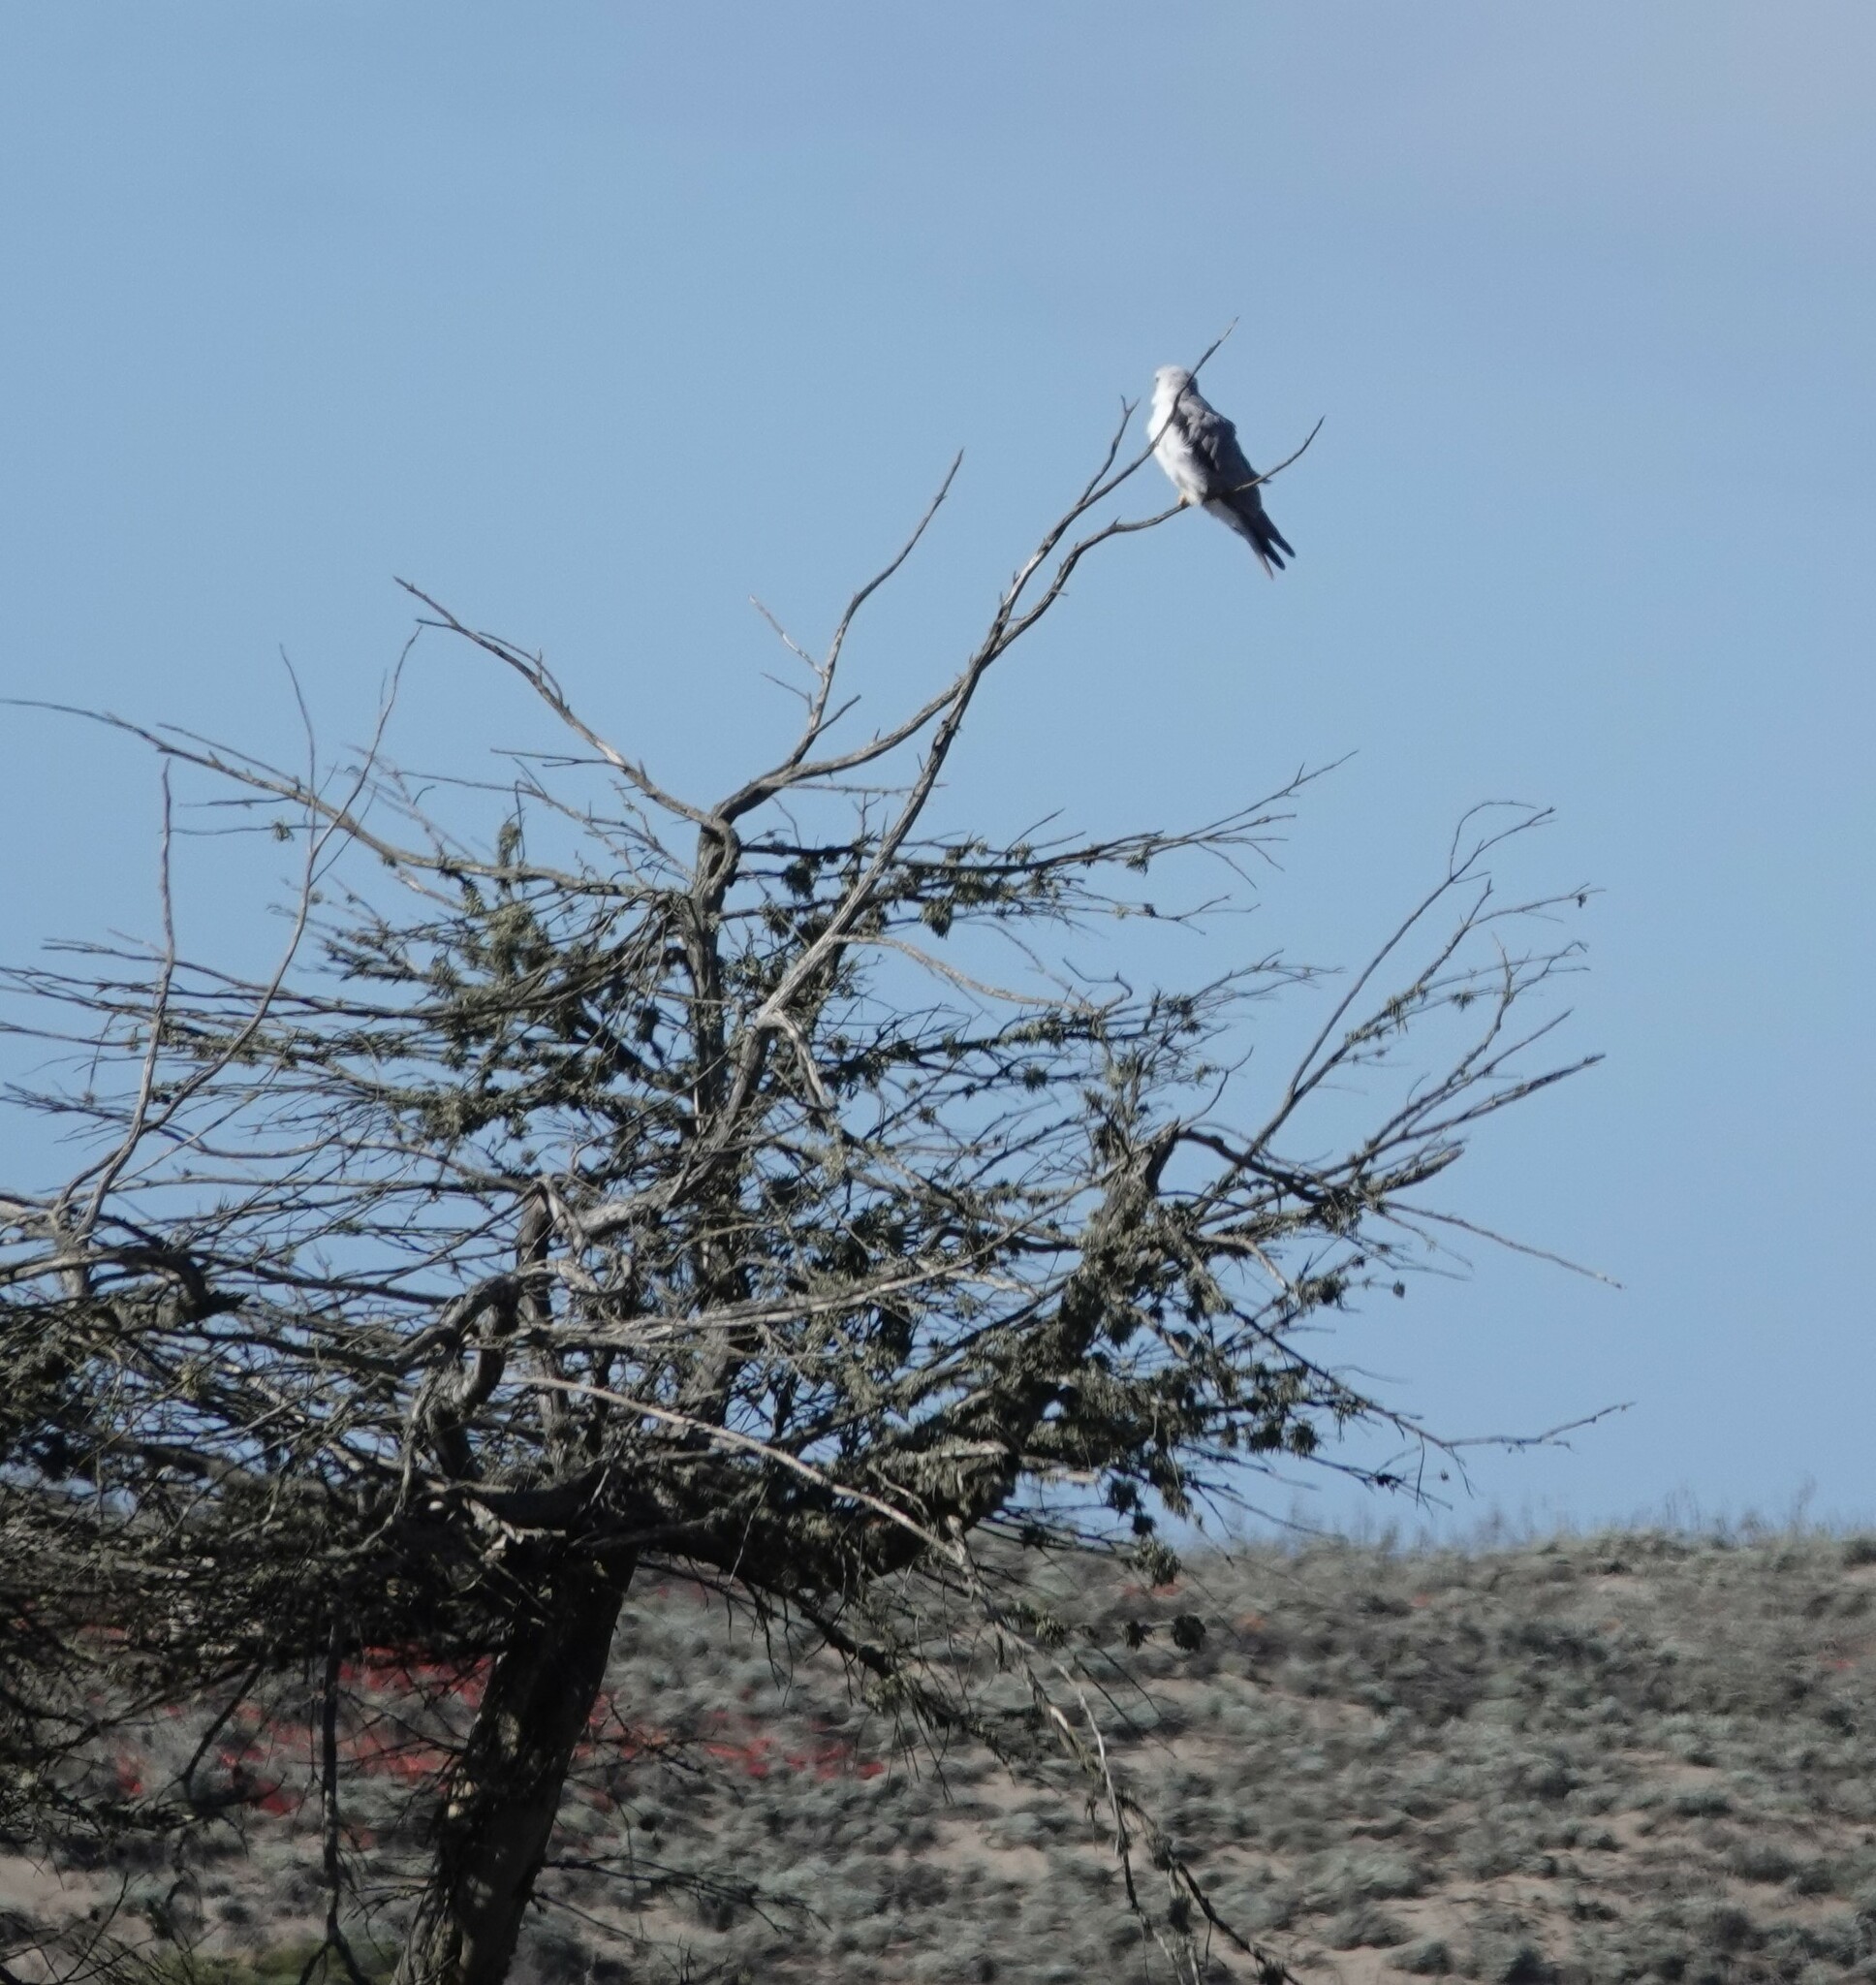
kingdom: Animalia
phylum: Chordata
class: Aves
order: Accipitriformes
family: Accipitridae
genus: Elanus
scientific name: Elanus leucurus
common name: White-tailed kite
